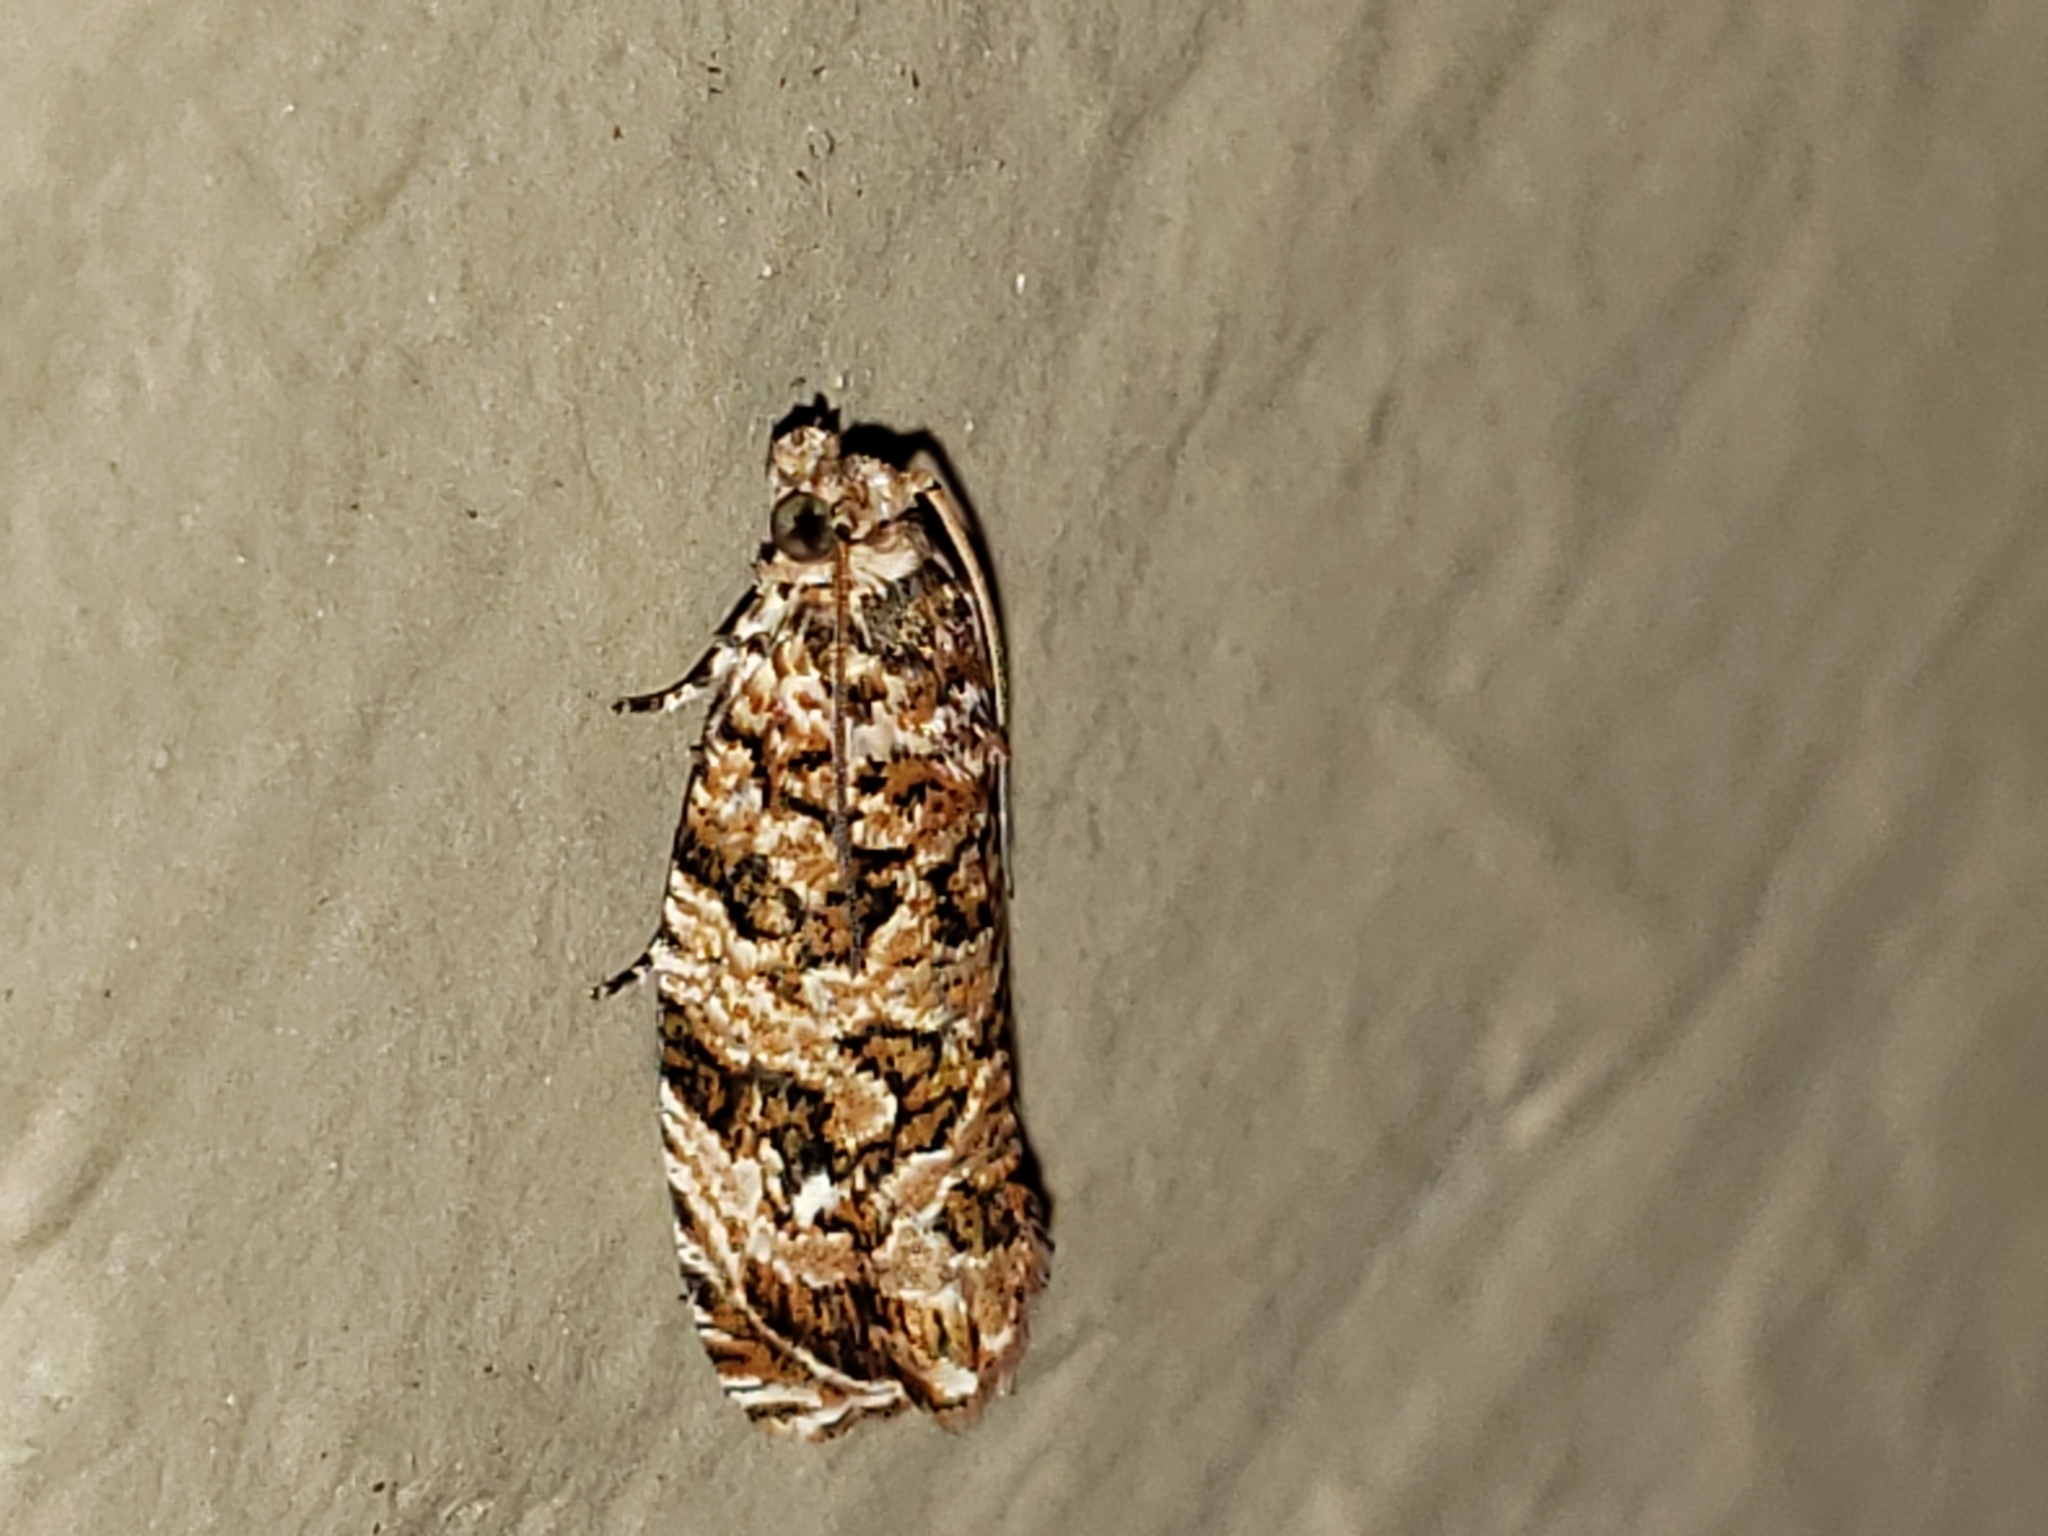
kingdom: Animalia
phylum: Arthropoda
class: Insecta
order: Lepidoptera
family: Tortricidae
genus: Phaecasiophora
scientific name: Phaecasiophora niveiguttana
